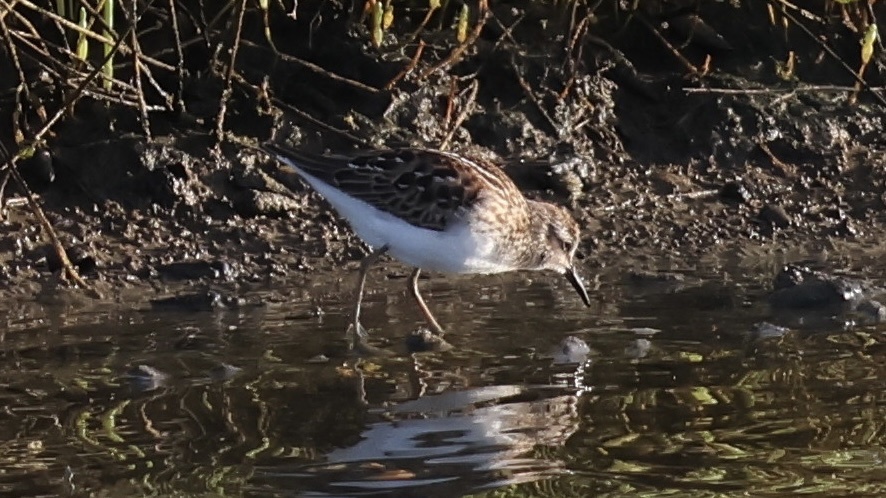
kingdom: Animalia
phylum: Chordata
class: Aves
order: Charadriiformes
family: Scolopacidae
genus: Calidris
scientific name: Calidris minutilla
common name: Least sandpiper
